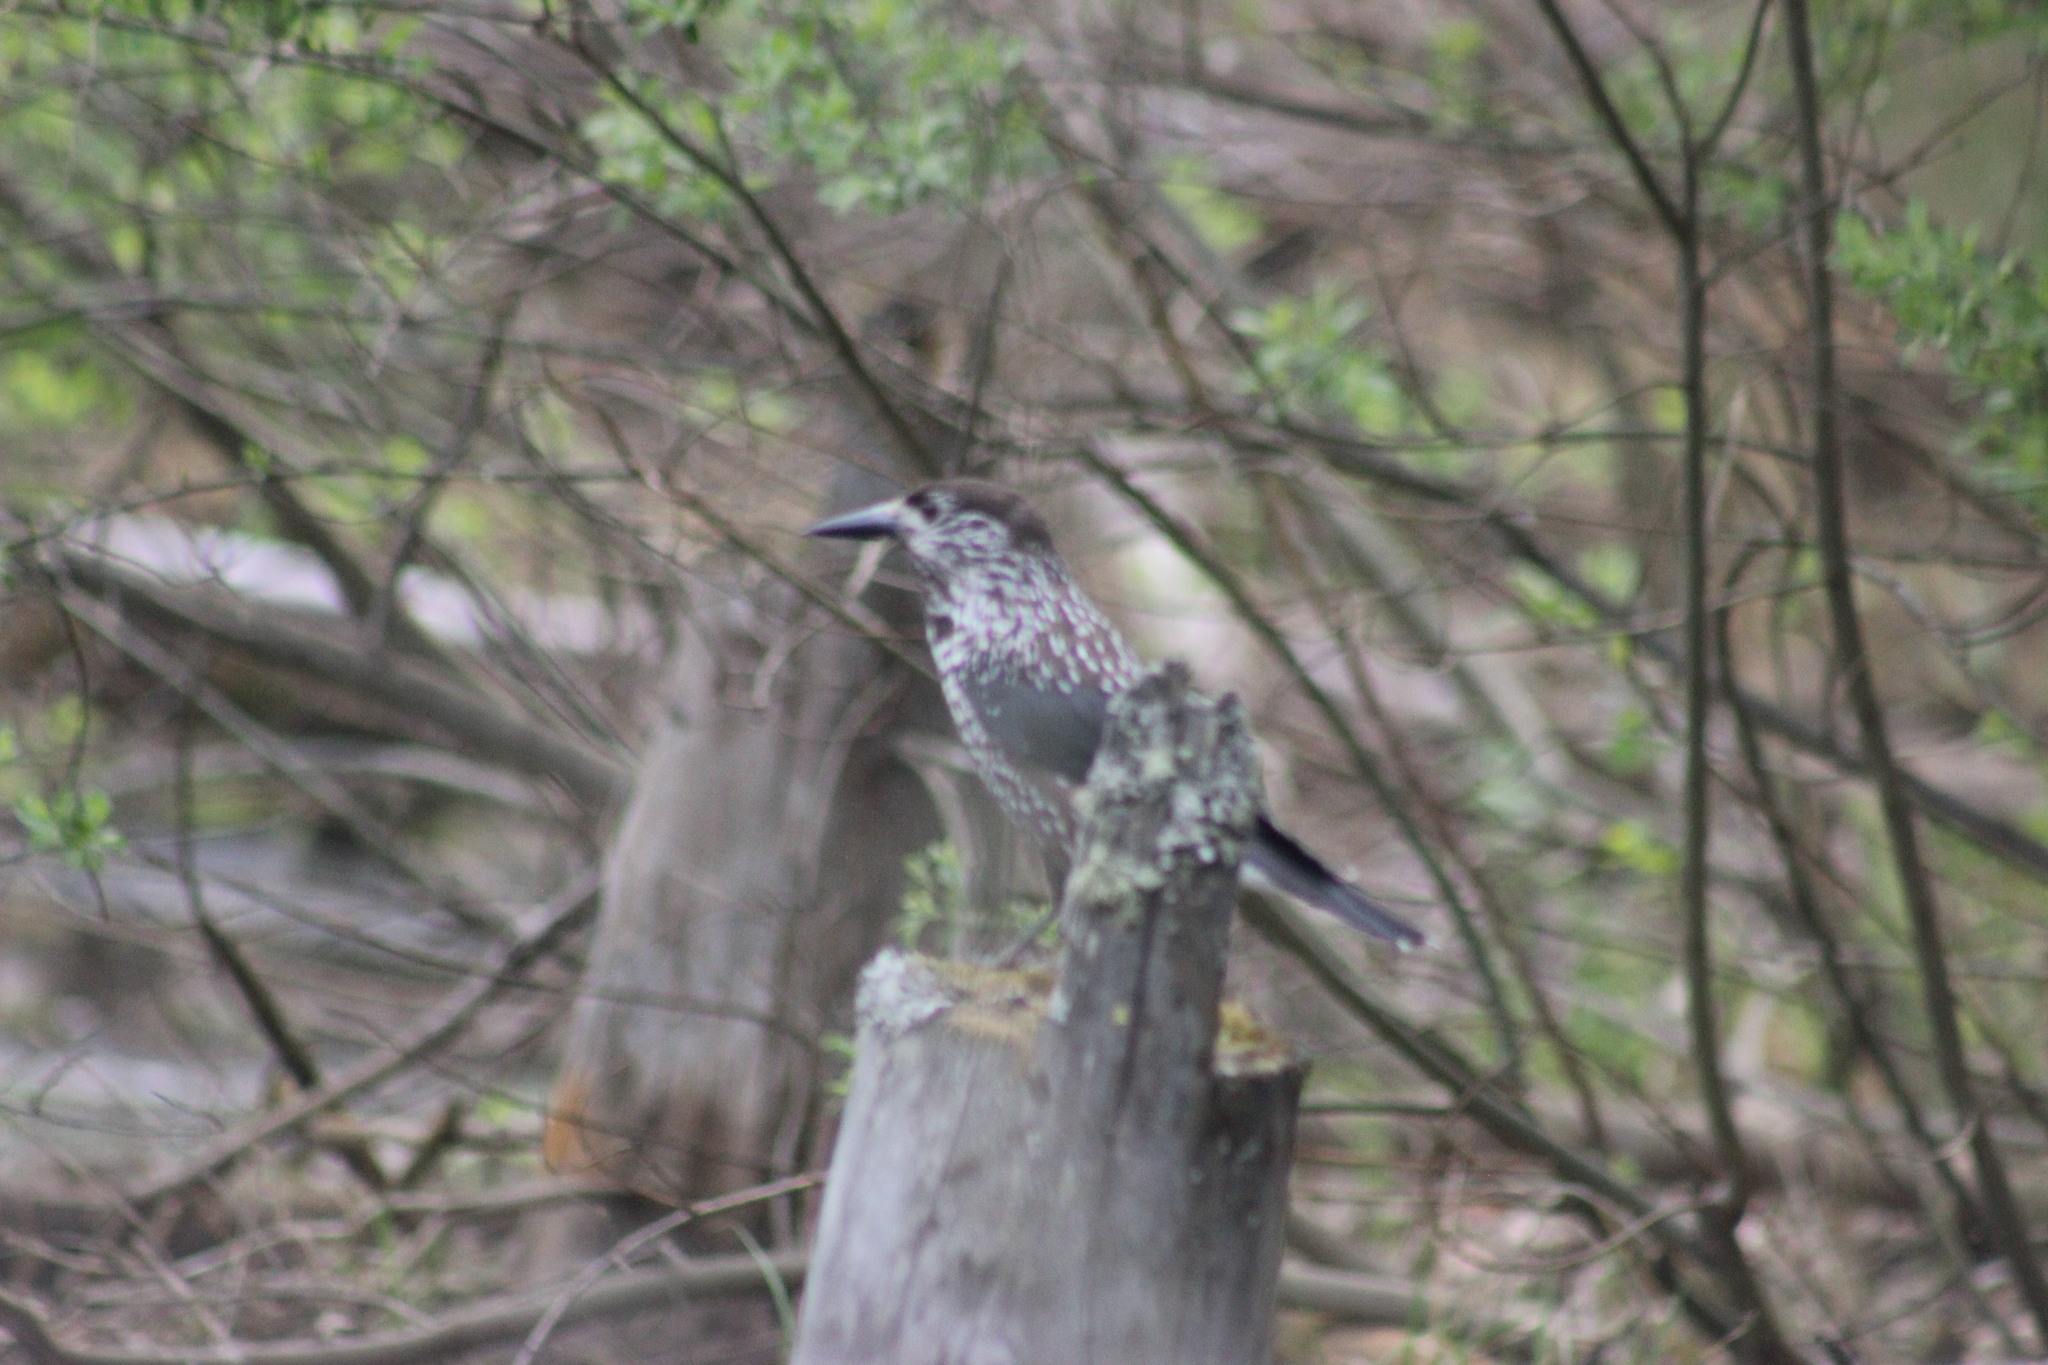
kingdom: Animalia
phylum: Chordata
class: Aves
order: Passeriformes
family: Corvidae
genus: Nucifraga
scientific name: Nucifraga caryocatactes
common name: Spotted nutcracker
